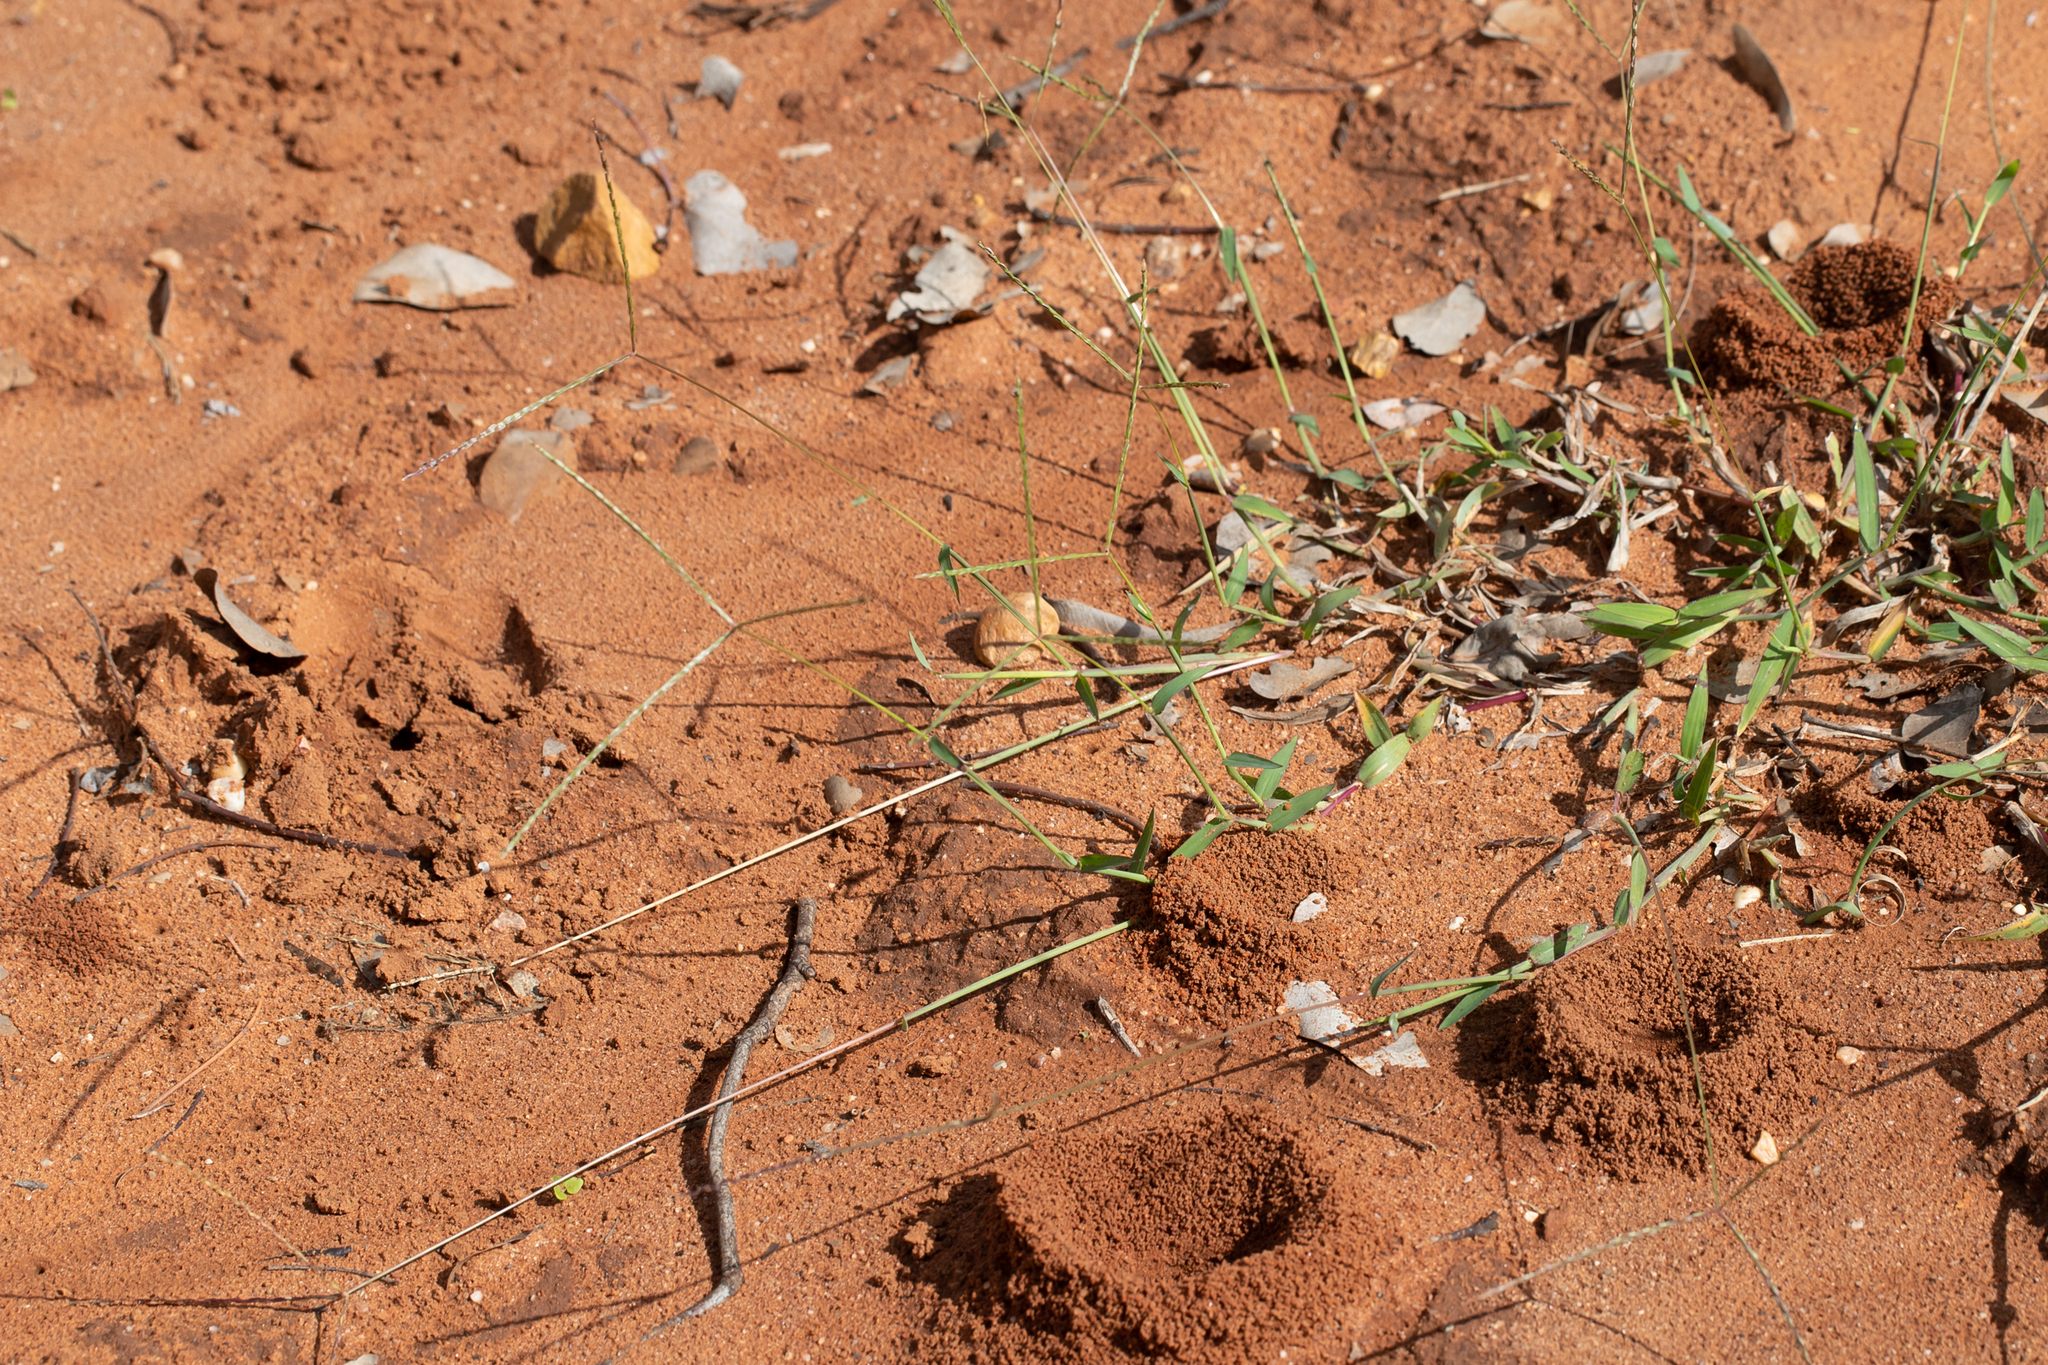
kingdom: Plantae
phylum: Tracheophyta
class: Liliopsida
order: Poales
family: Poaceae
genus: Digitaria
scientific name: Digitaria ciliaris
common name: Tropical finger-grass
